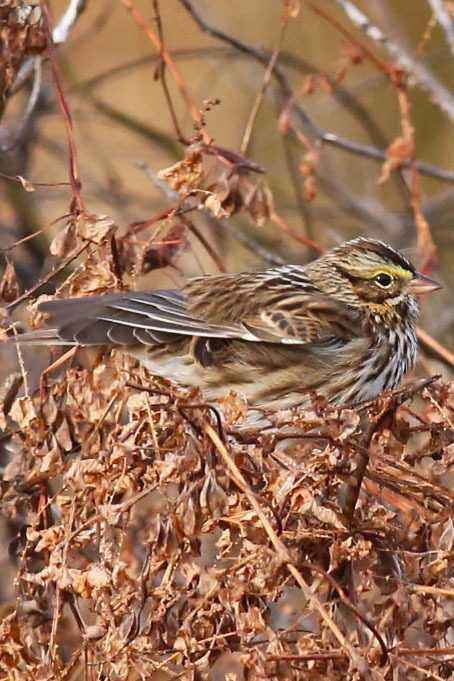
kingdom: Animalia
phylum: Chordata
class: Aves
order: Passeriformes
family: Passerellidae
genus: Passerculus
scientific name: Passerculus sandwichensis
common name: Savannah sparrow
